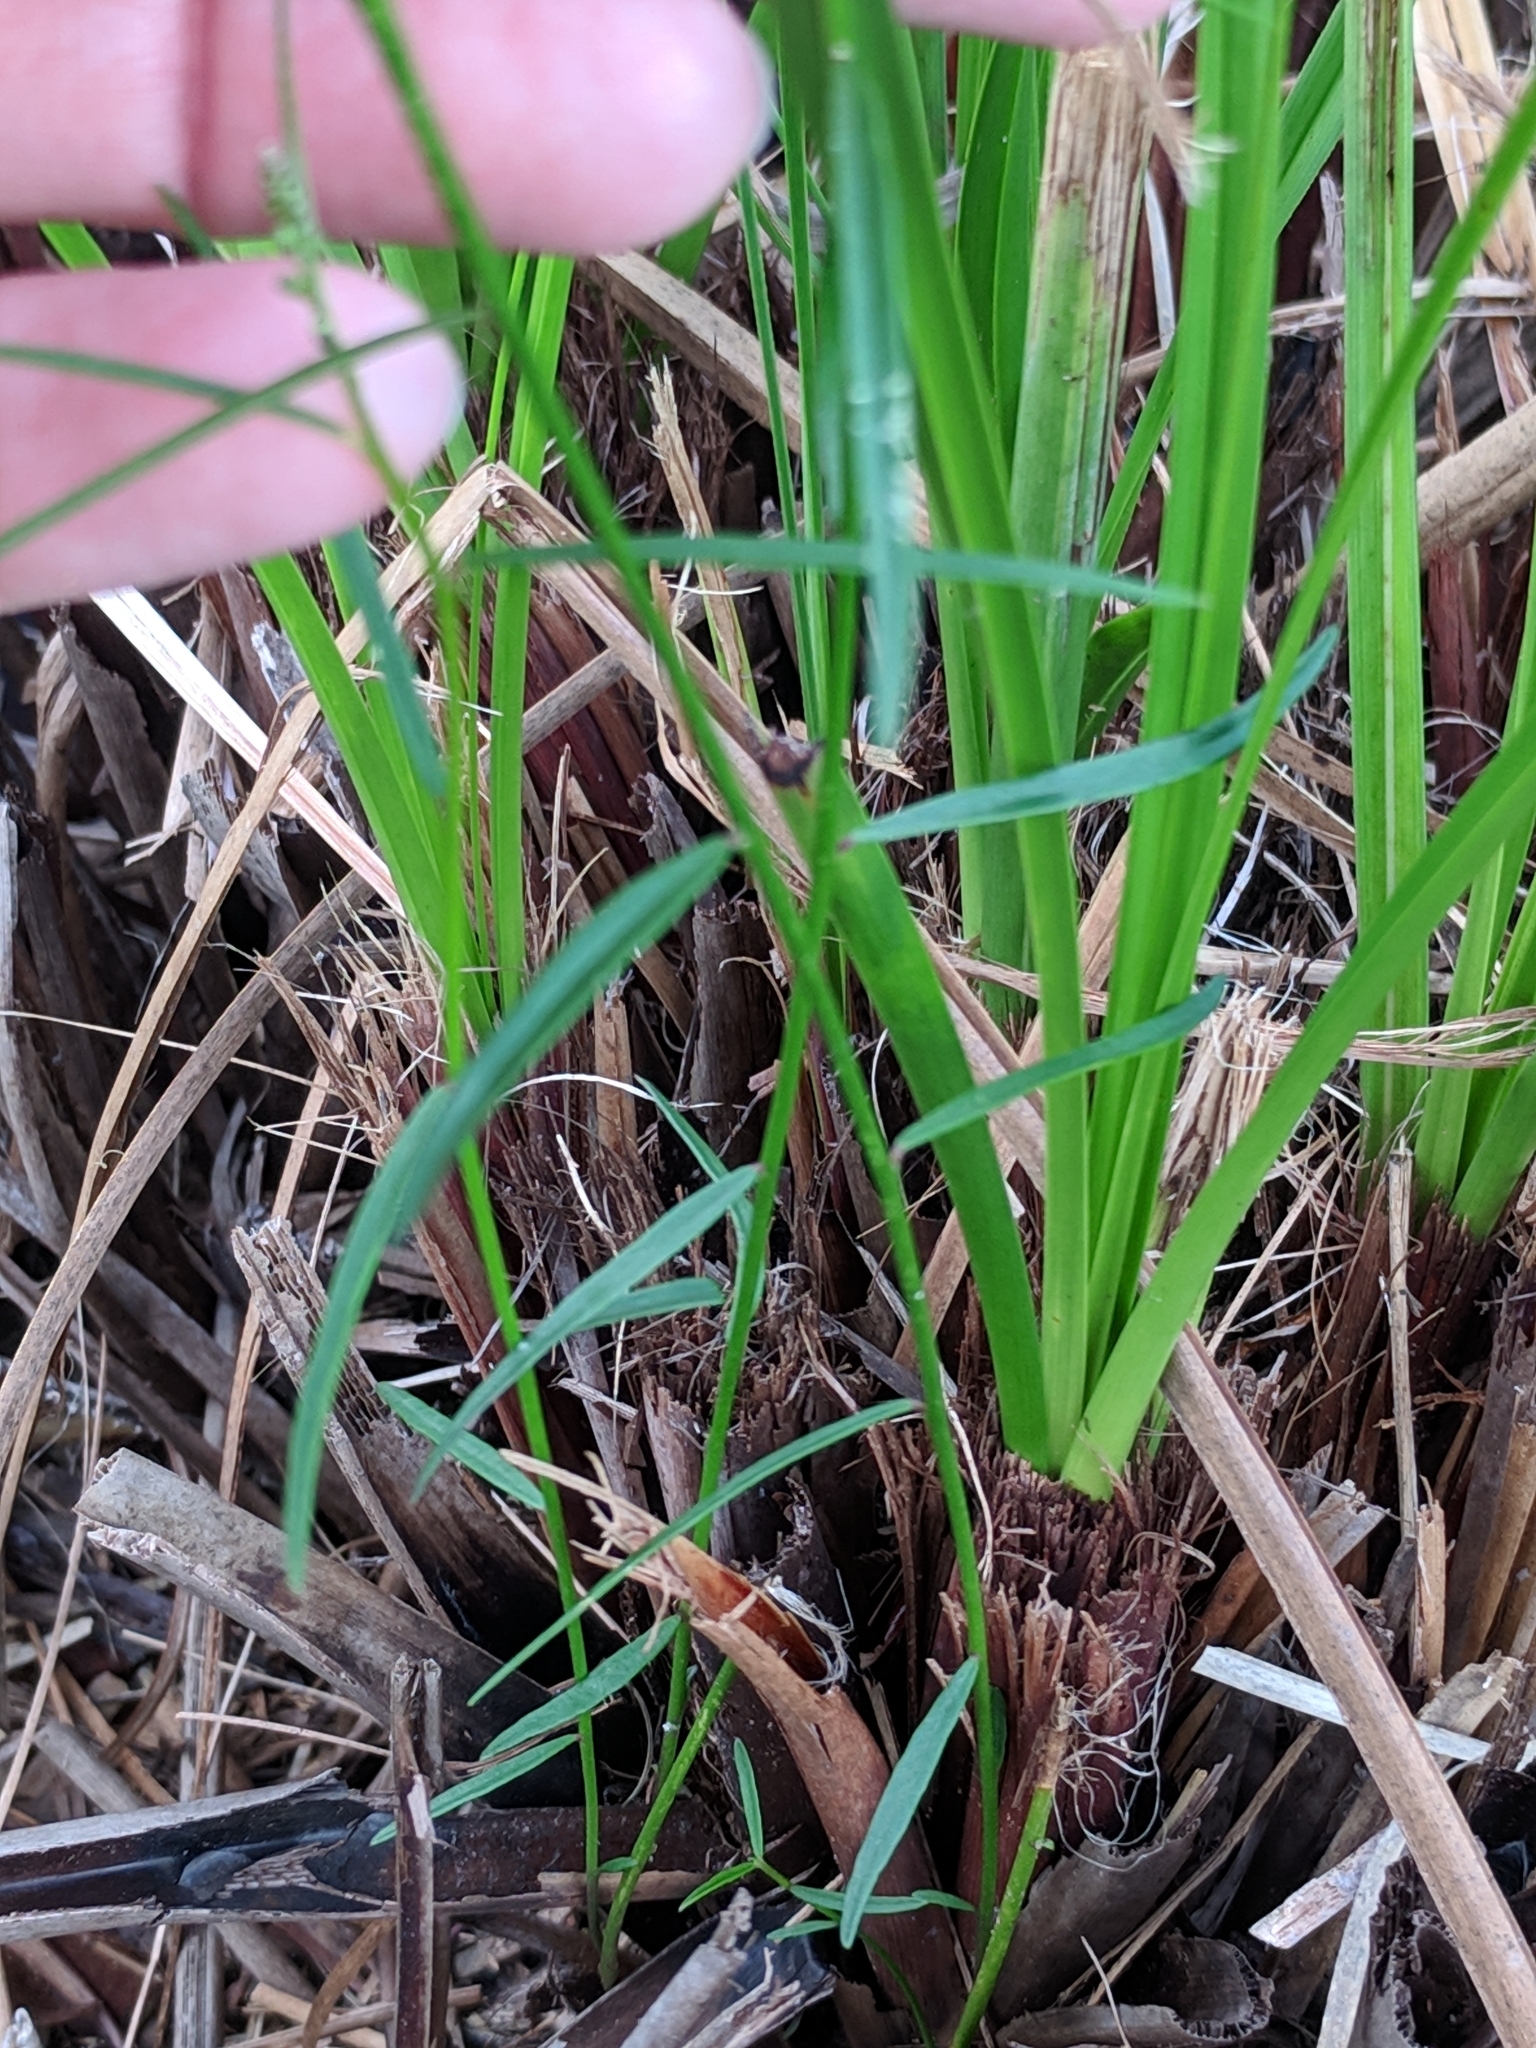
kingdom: Plantae
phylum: Tracheophyta
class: Magnoliopsida
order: Fabales
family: Polygalaceae
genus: Asemeia
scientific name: Asemeia grandiflora
